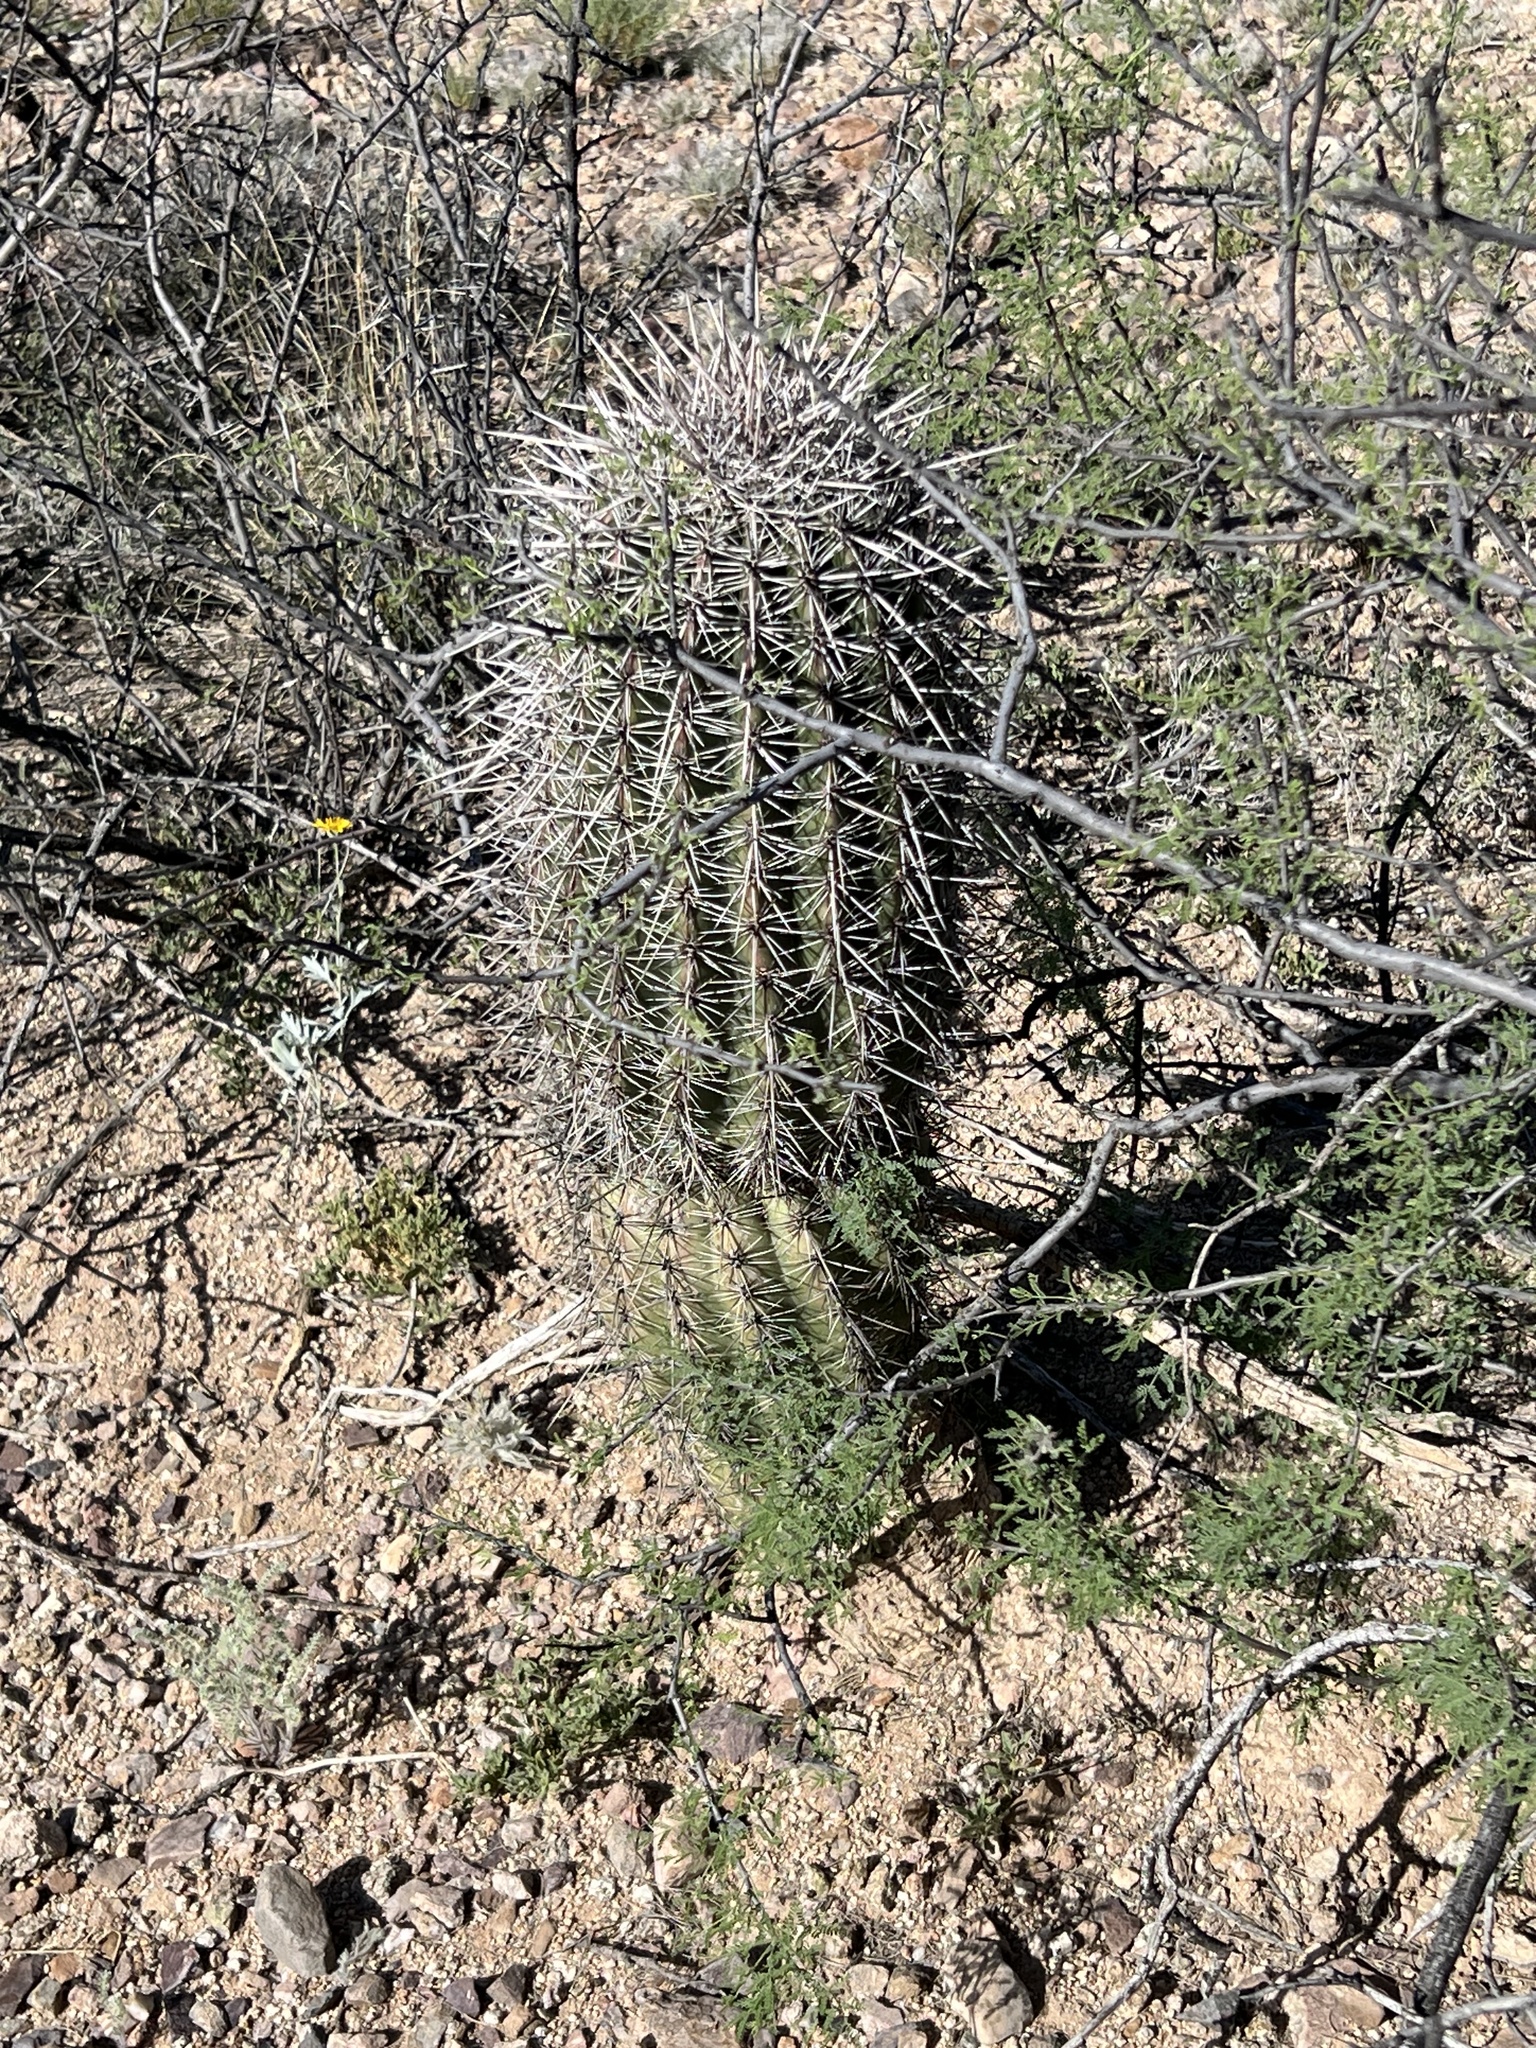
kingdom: Plantae
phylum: Tracheophyta
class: Magnoliopsida
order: Caryophyllales
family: Cactaceae
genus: Carnegiea
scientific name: Carnegiea gigantea
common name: Saguaro
